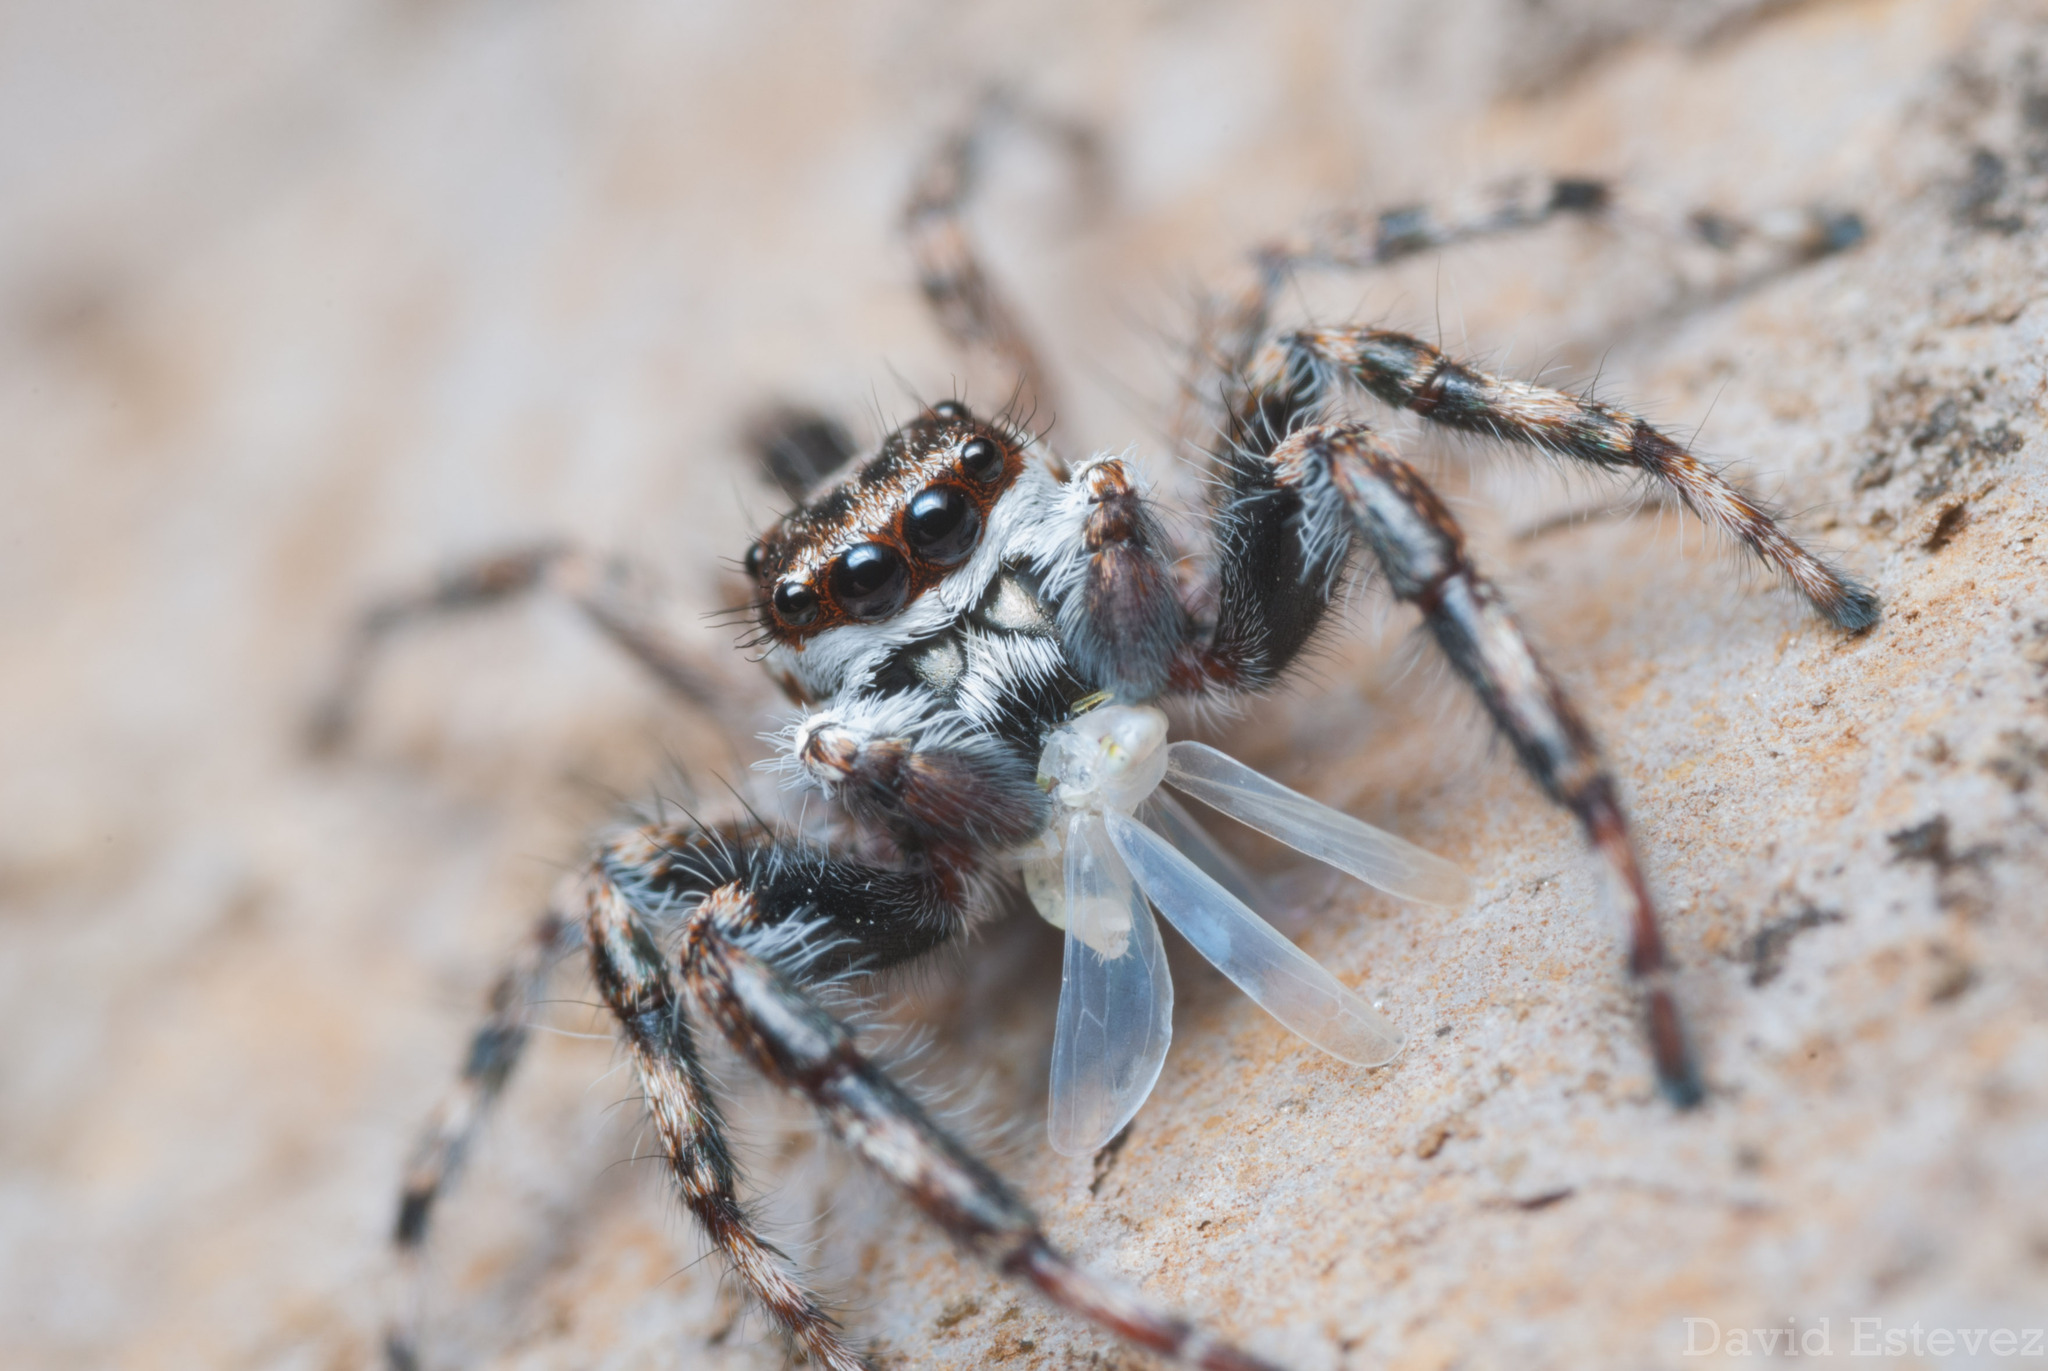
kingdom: Animalia
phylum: Arthropoda
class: Arachnida
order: Araneae
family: Salticidae
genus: Menemerus
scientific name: Menemerus bivittatus
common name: Gray wall jumper
